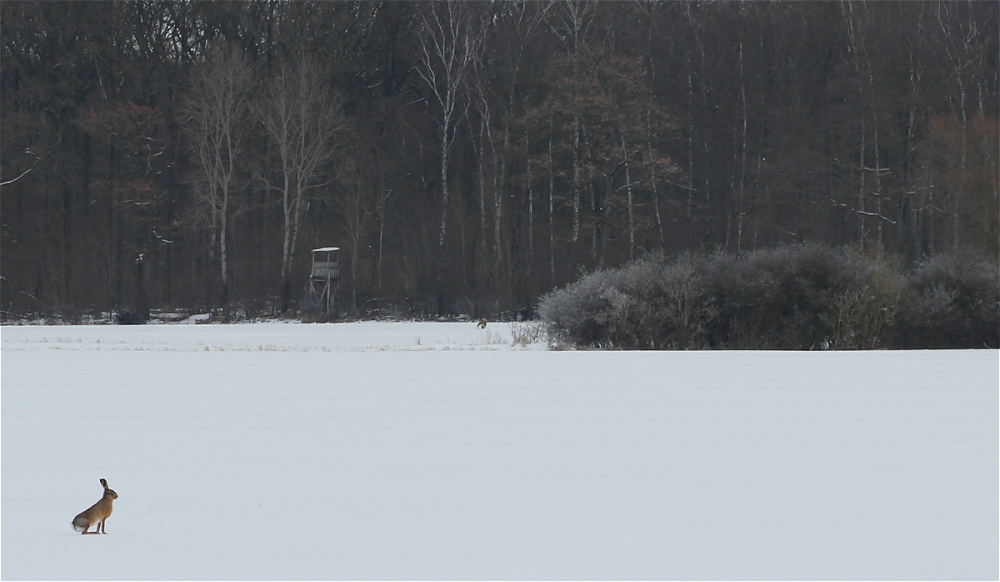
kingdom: Animalia
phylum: Chordata
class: Mammalia
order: Lagomorpha
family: Leporidae
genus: Lepus
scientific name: Lepus europaeus
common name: European hare
